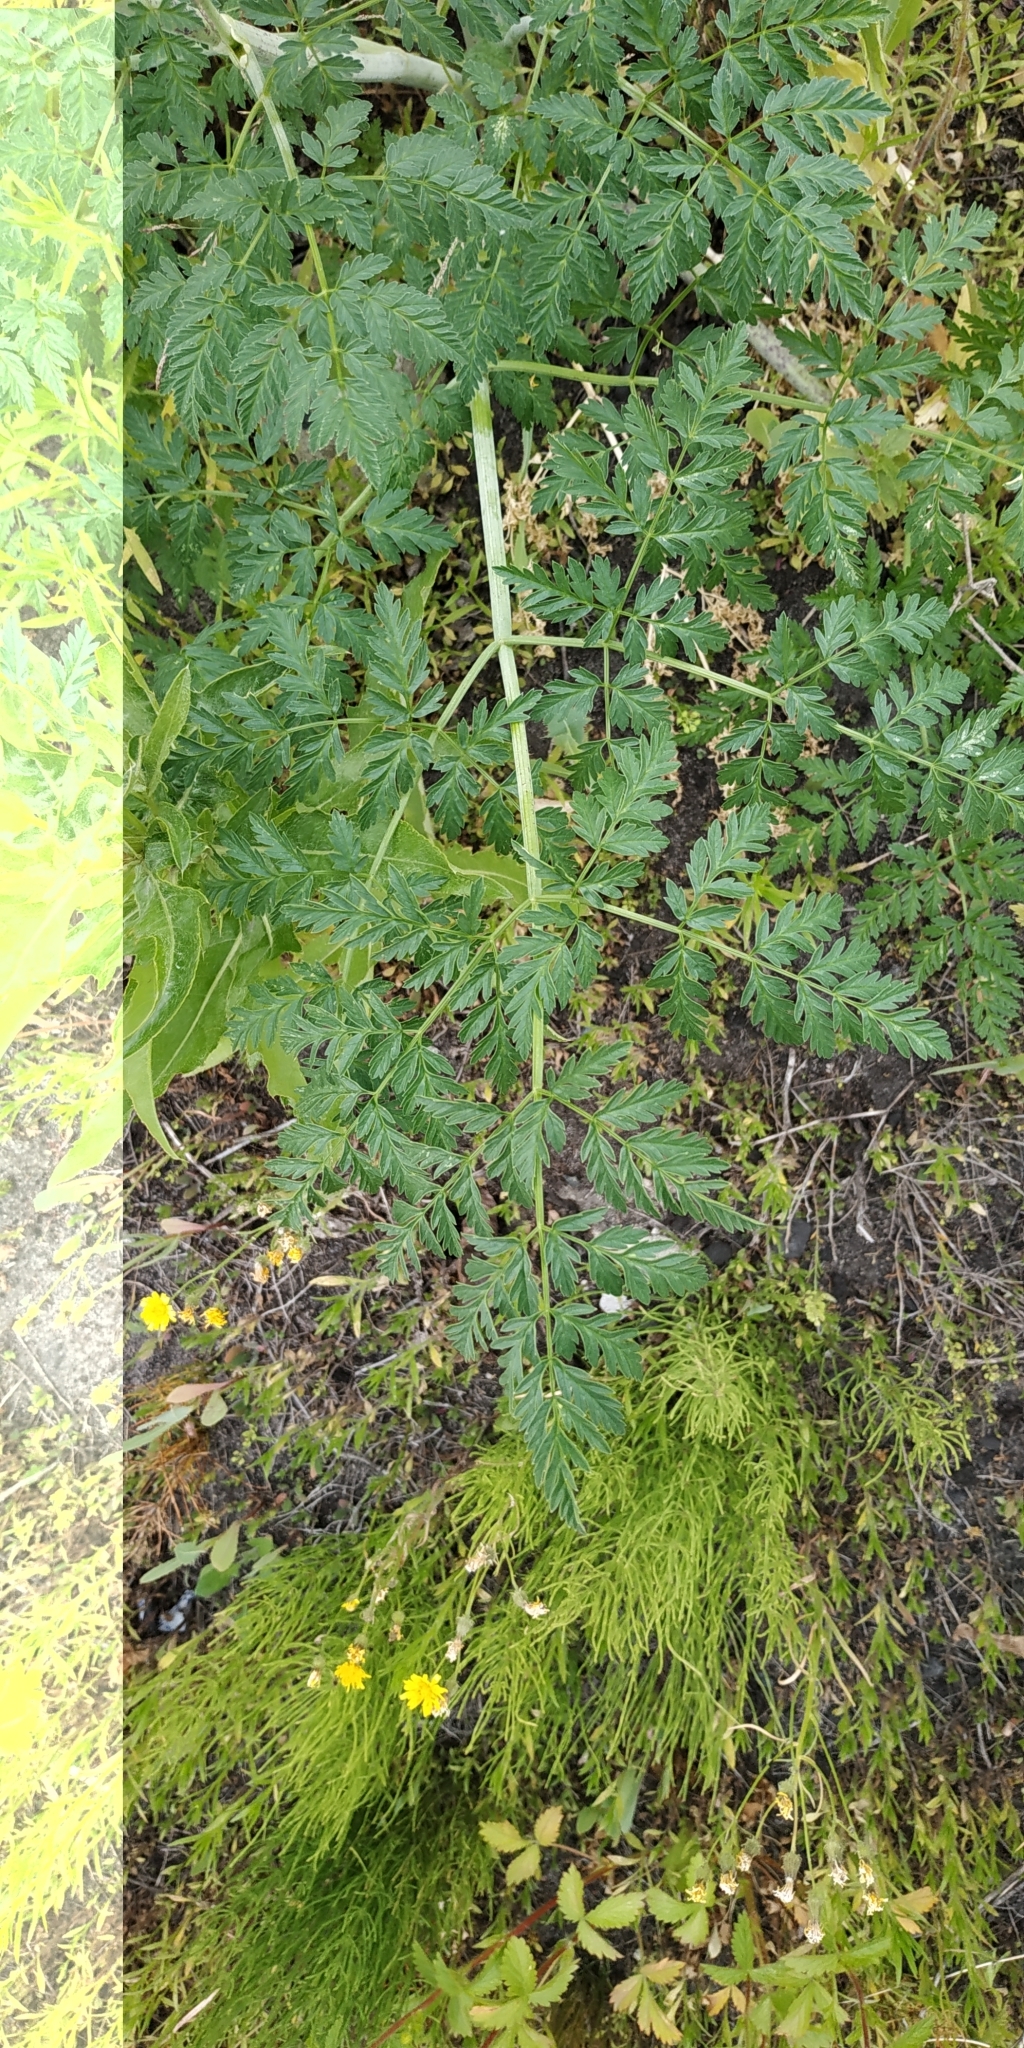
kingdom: Plantae
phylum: Tracheophyta
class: Magnoliopsida
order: Apiales
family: Apiaceae
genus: Conium
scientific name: Conium maculatum
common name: Hemlock
